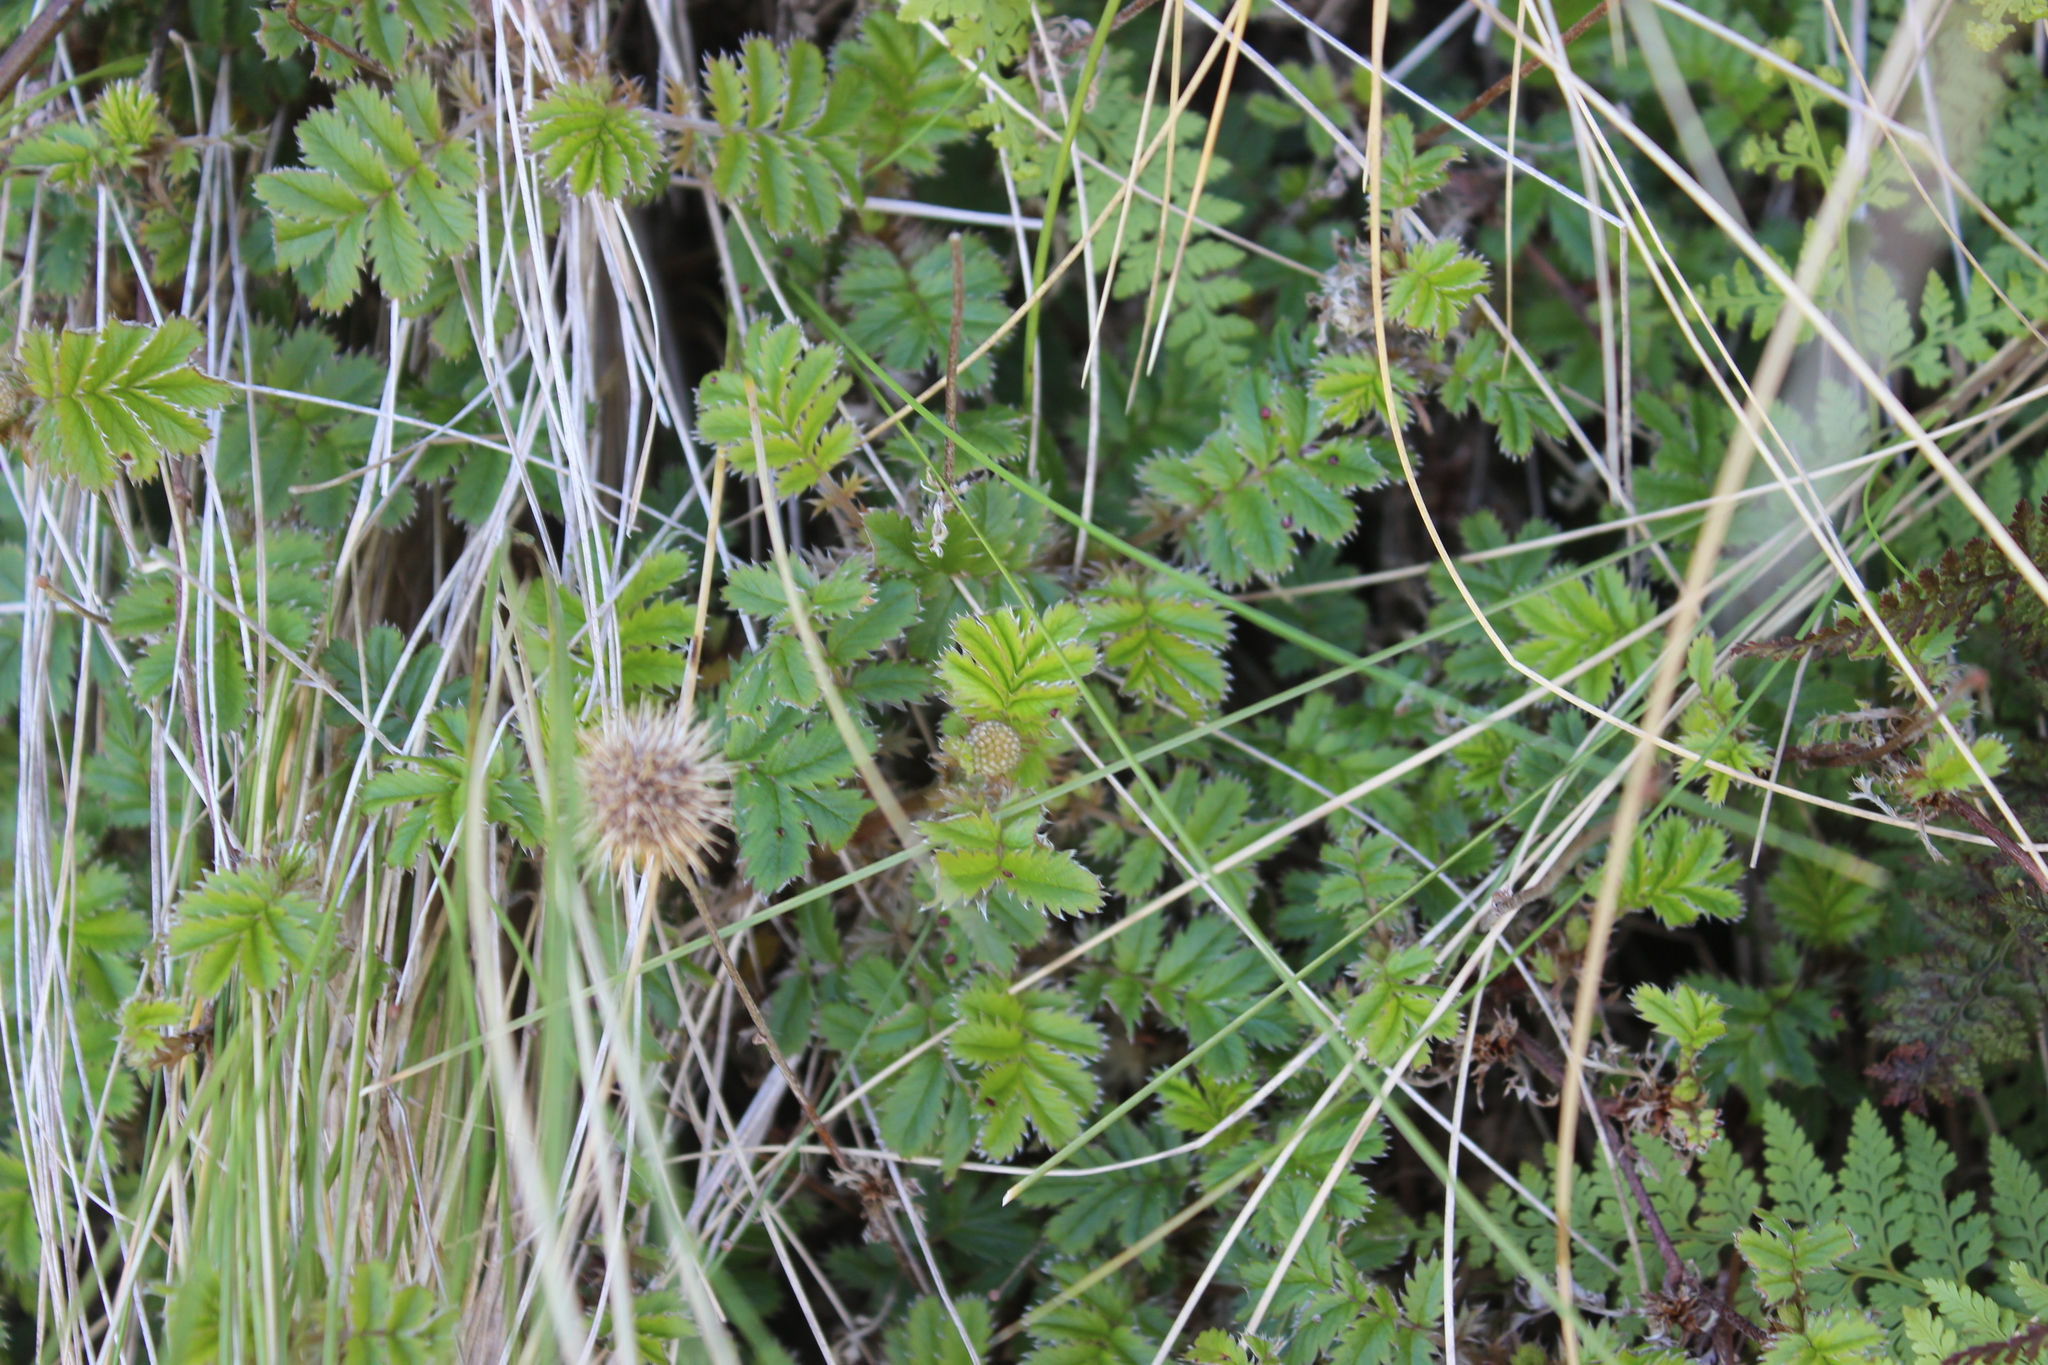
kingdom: Plantae
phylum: Tracheophyta
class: Magnoliopsida
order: Rosales
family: Rosaceae
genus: Acaena
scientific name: Acaena anserinifolia
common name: Bronze pirri-pirri-bur
